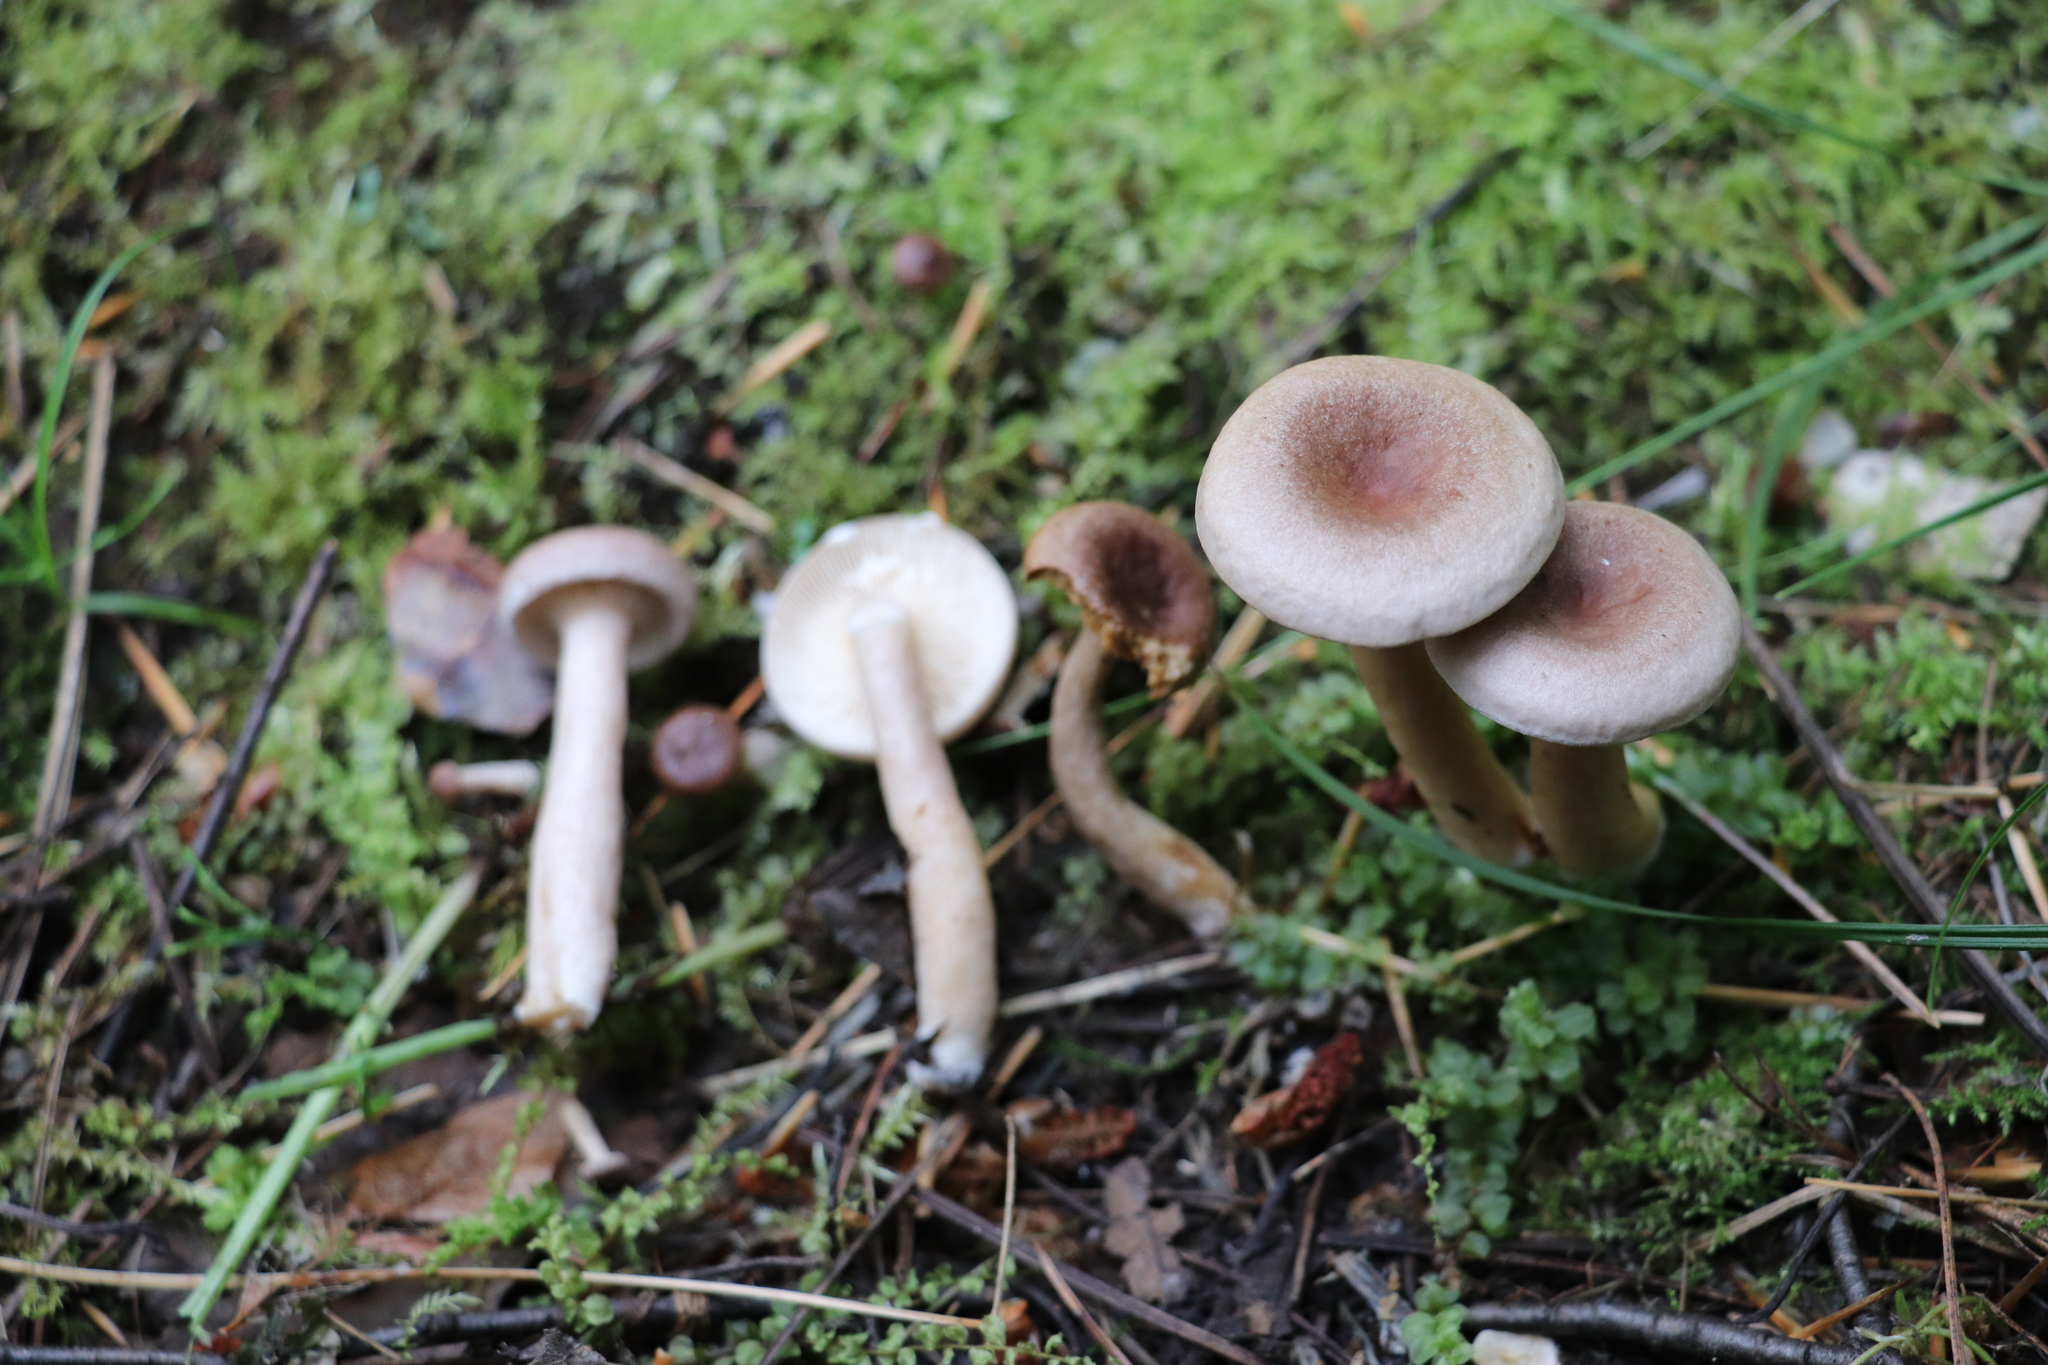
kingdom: Fungi
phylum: Basidiomycota
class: Agaricomycetes
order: Russulales
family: Russulaceae
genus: Lactarius
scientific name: Lactarius vietus
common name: Grey milk-cap
